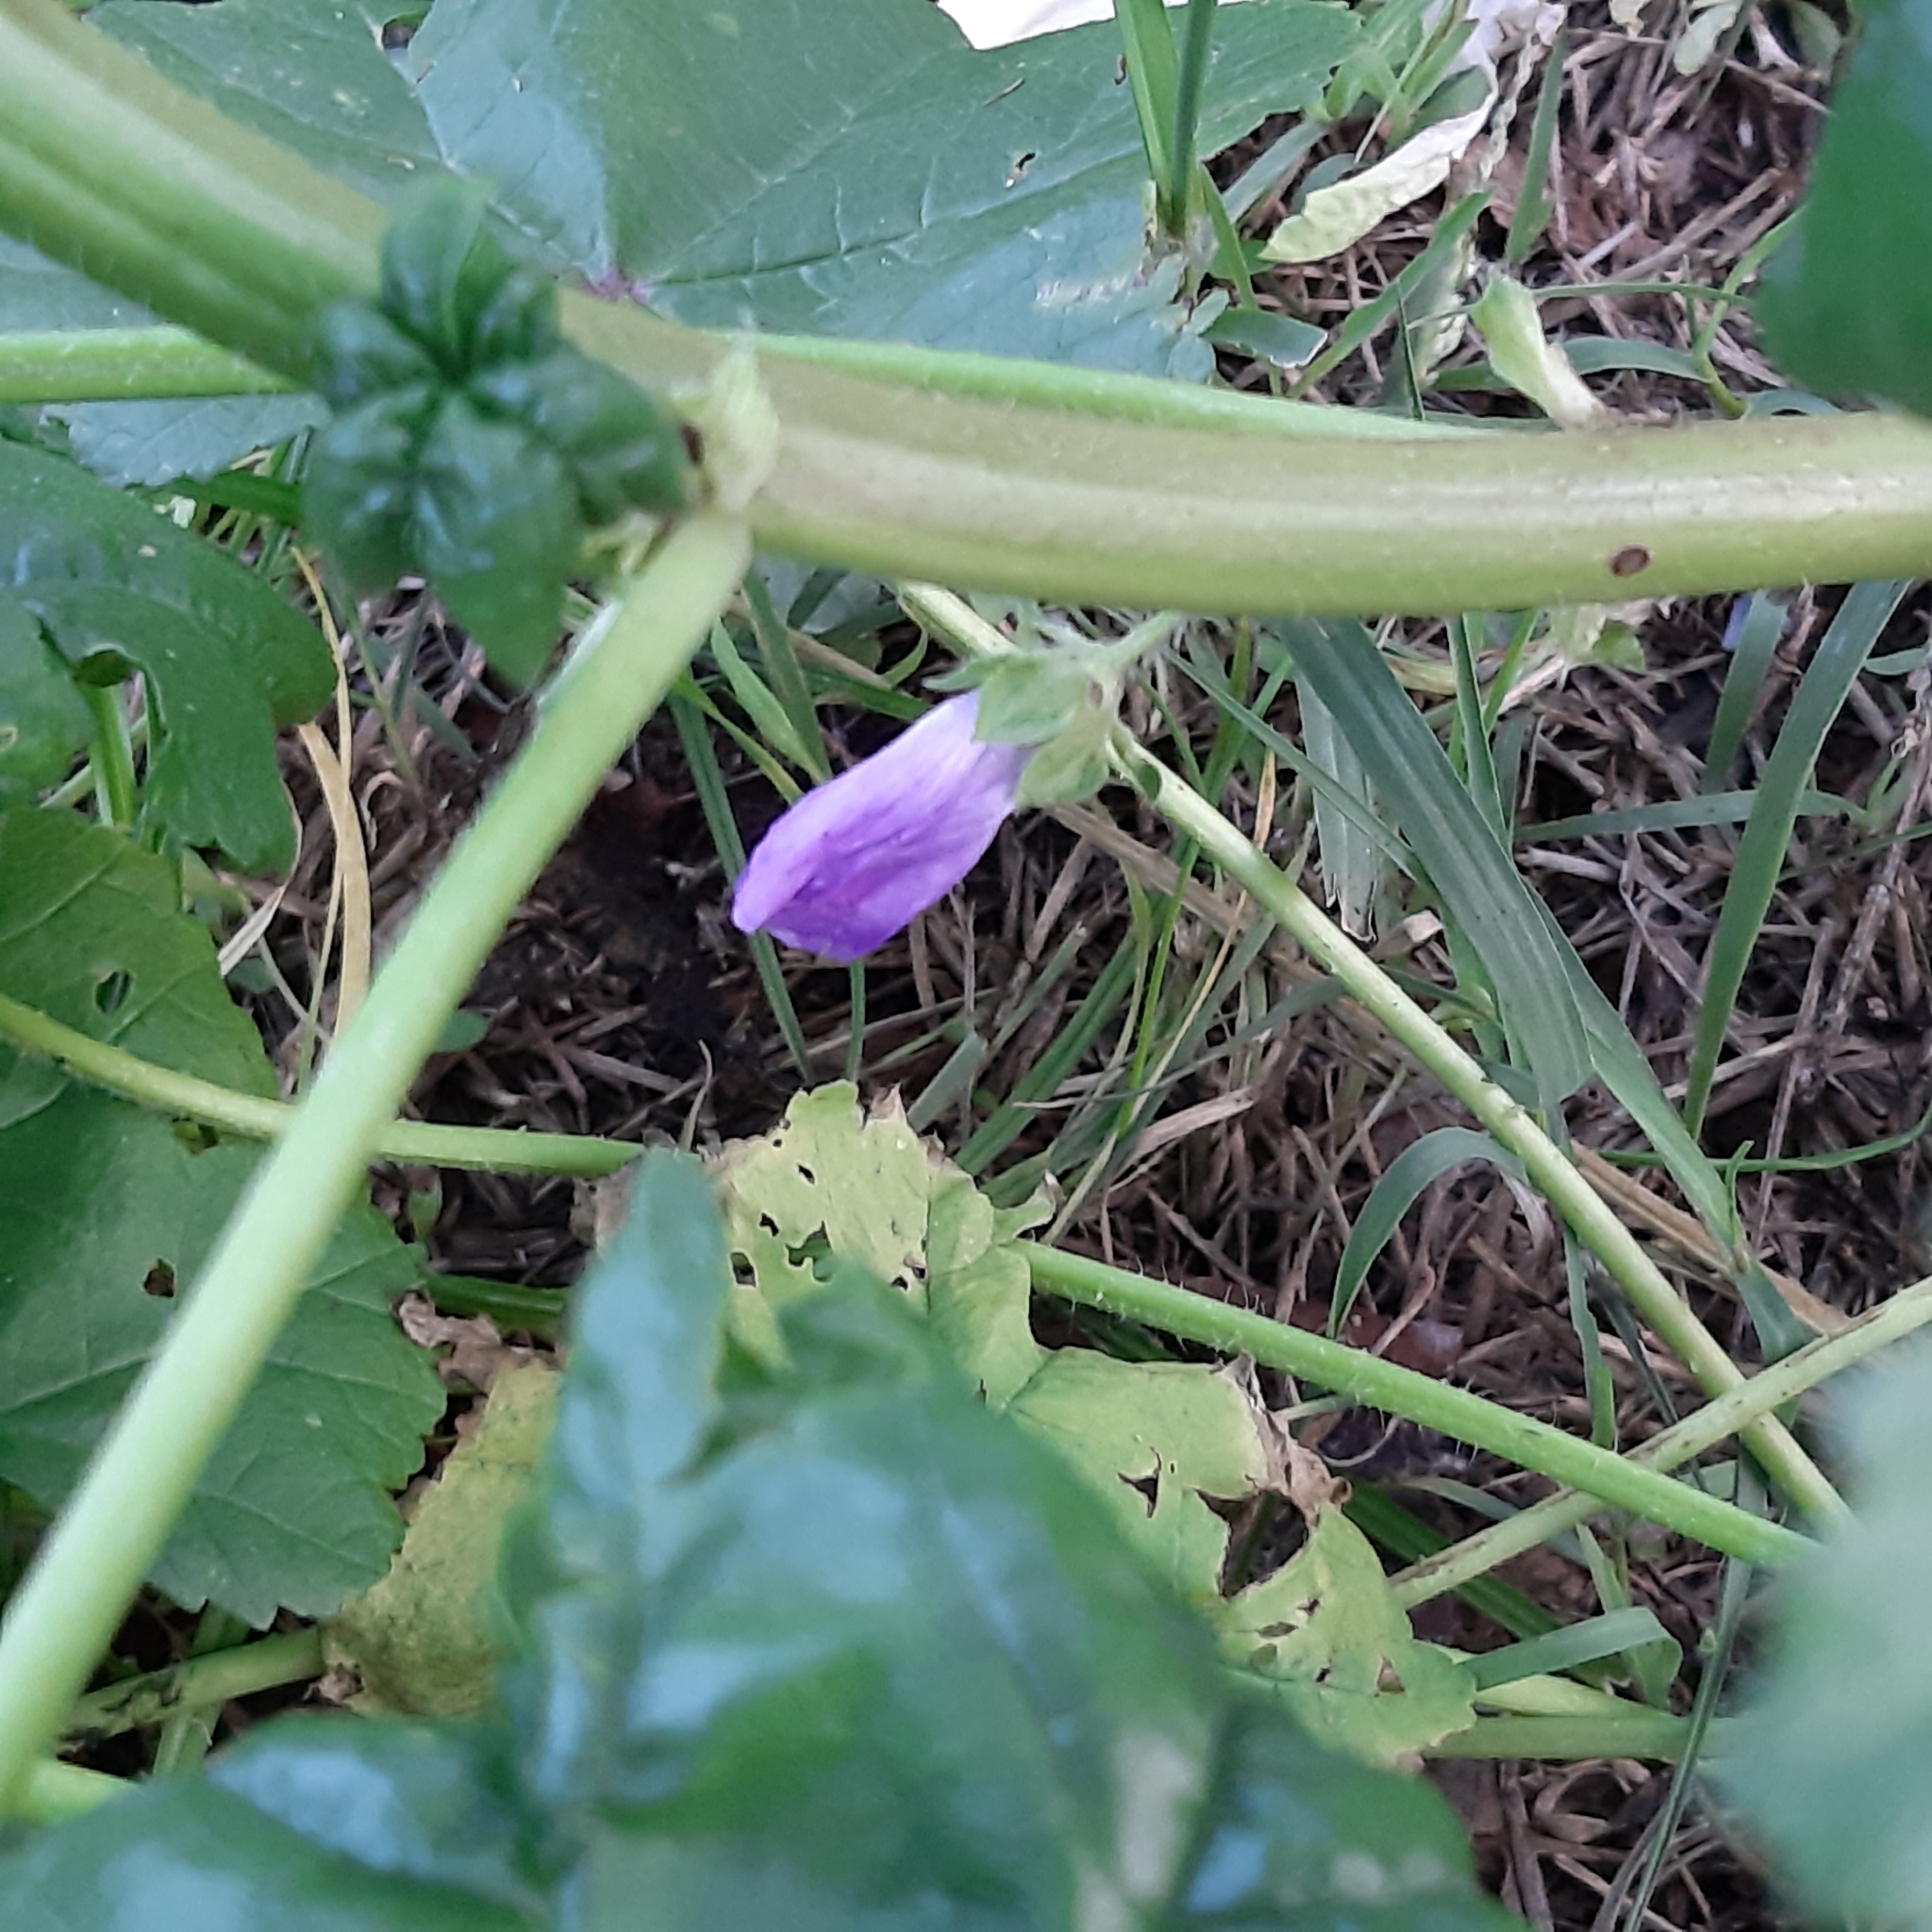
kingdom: Plantae
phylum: Tracheophyta
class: Magnoliopsida
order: Malvales
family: Malvaceae
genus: Malva
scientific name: Malva sylvestris
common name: Common mallow
